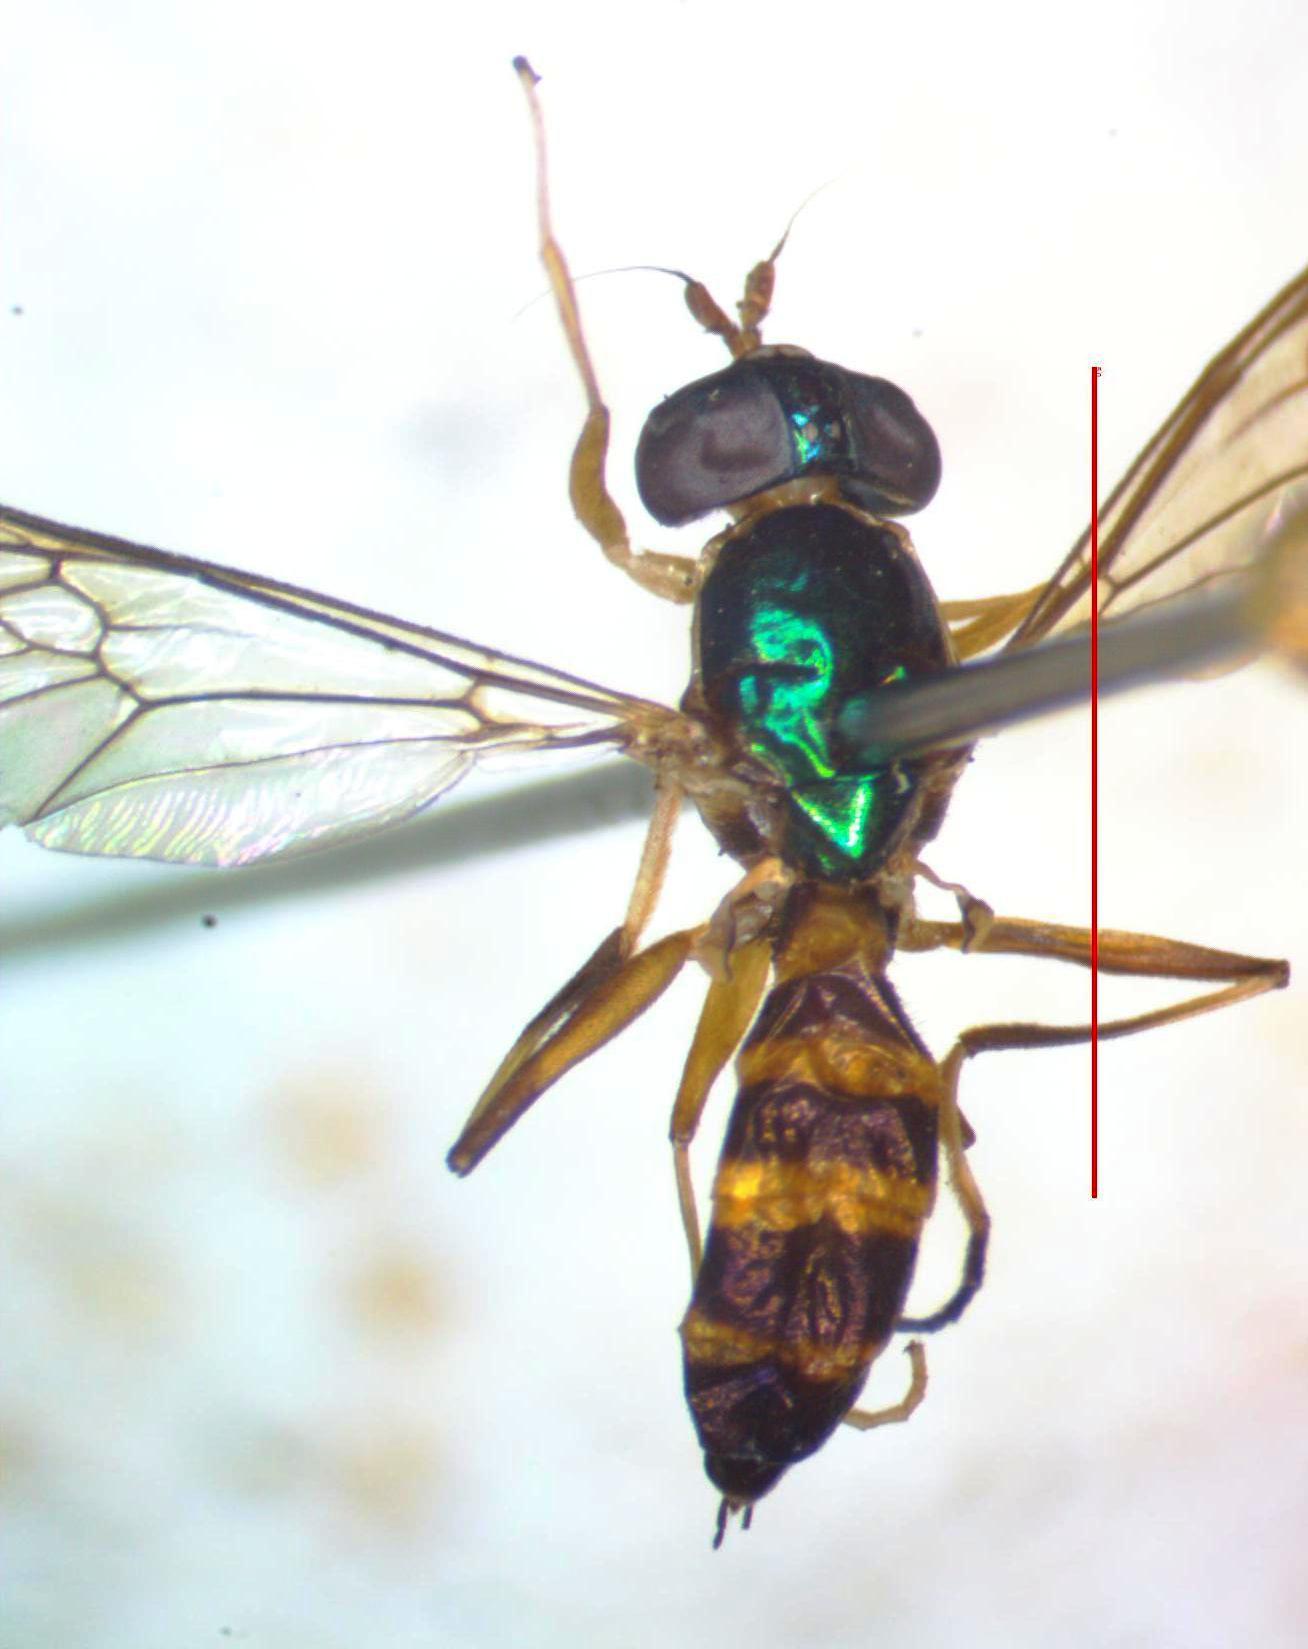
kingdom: Animalia
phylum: Arthropoda
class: Insecta
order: Diptera
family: Stratiomyidae
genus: Merosargus
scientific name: Merosargus bequaerti
